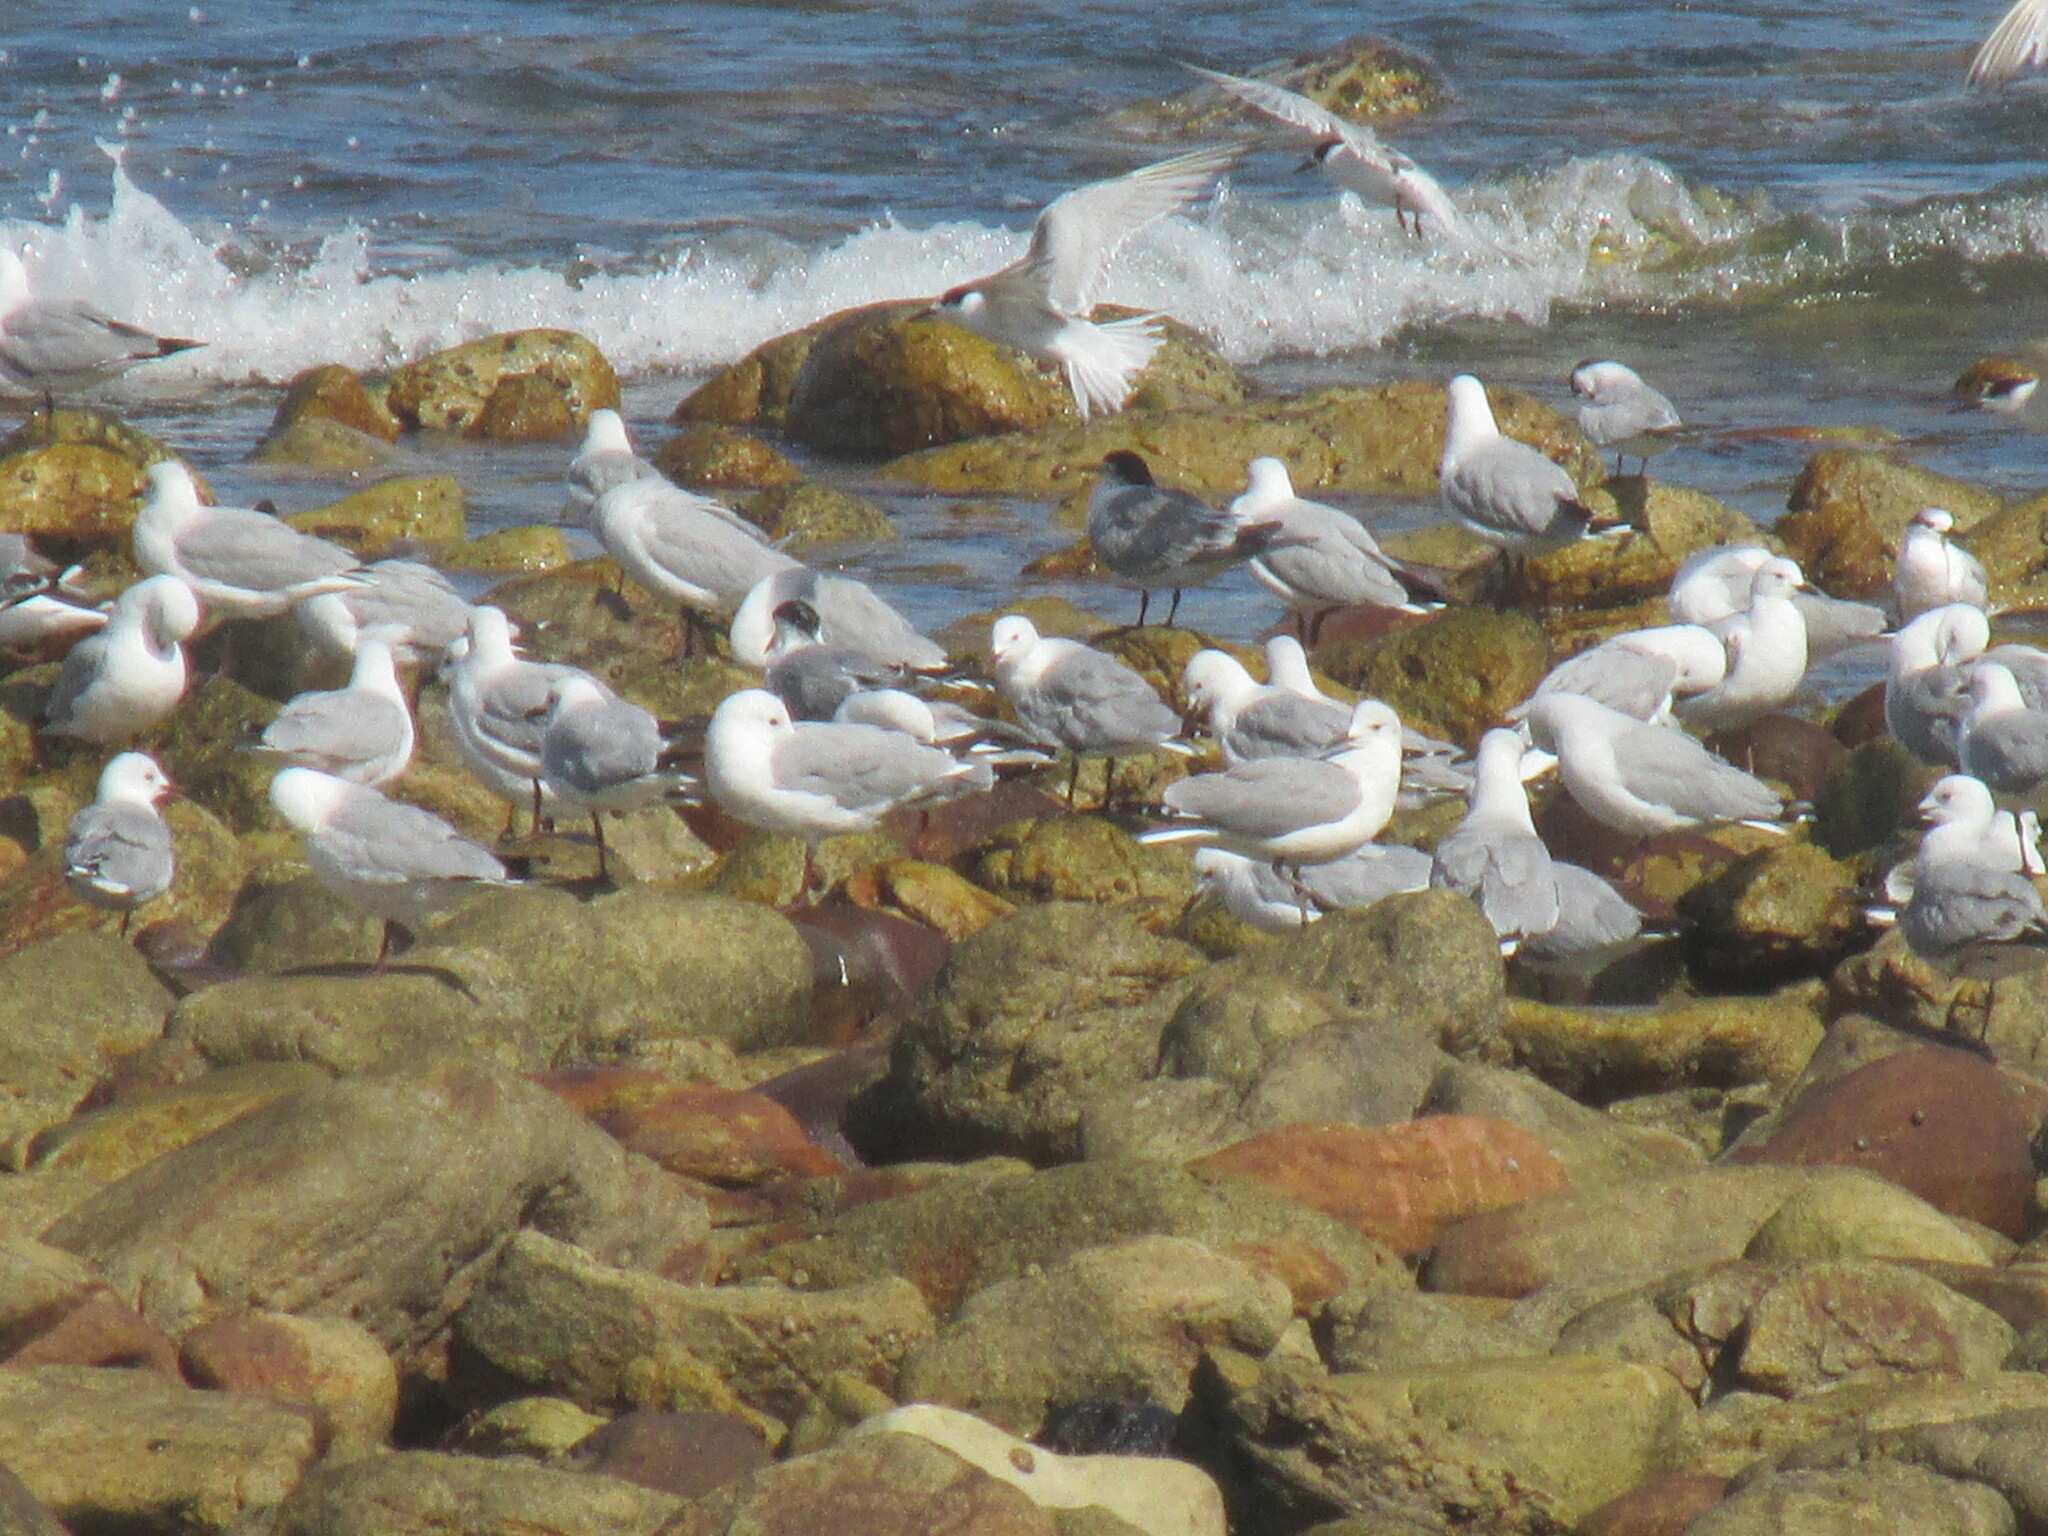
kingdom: Animalia
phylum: Chordata
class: Aves
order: Charadriiformes
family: Laridae
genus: Chroicocephalus
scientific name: Chroicocephalus hartlaubii
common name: Hartlaub's gull
